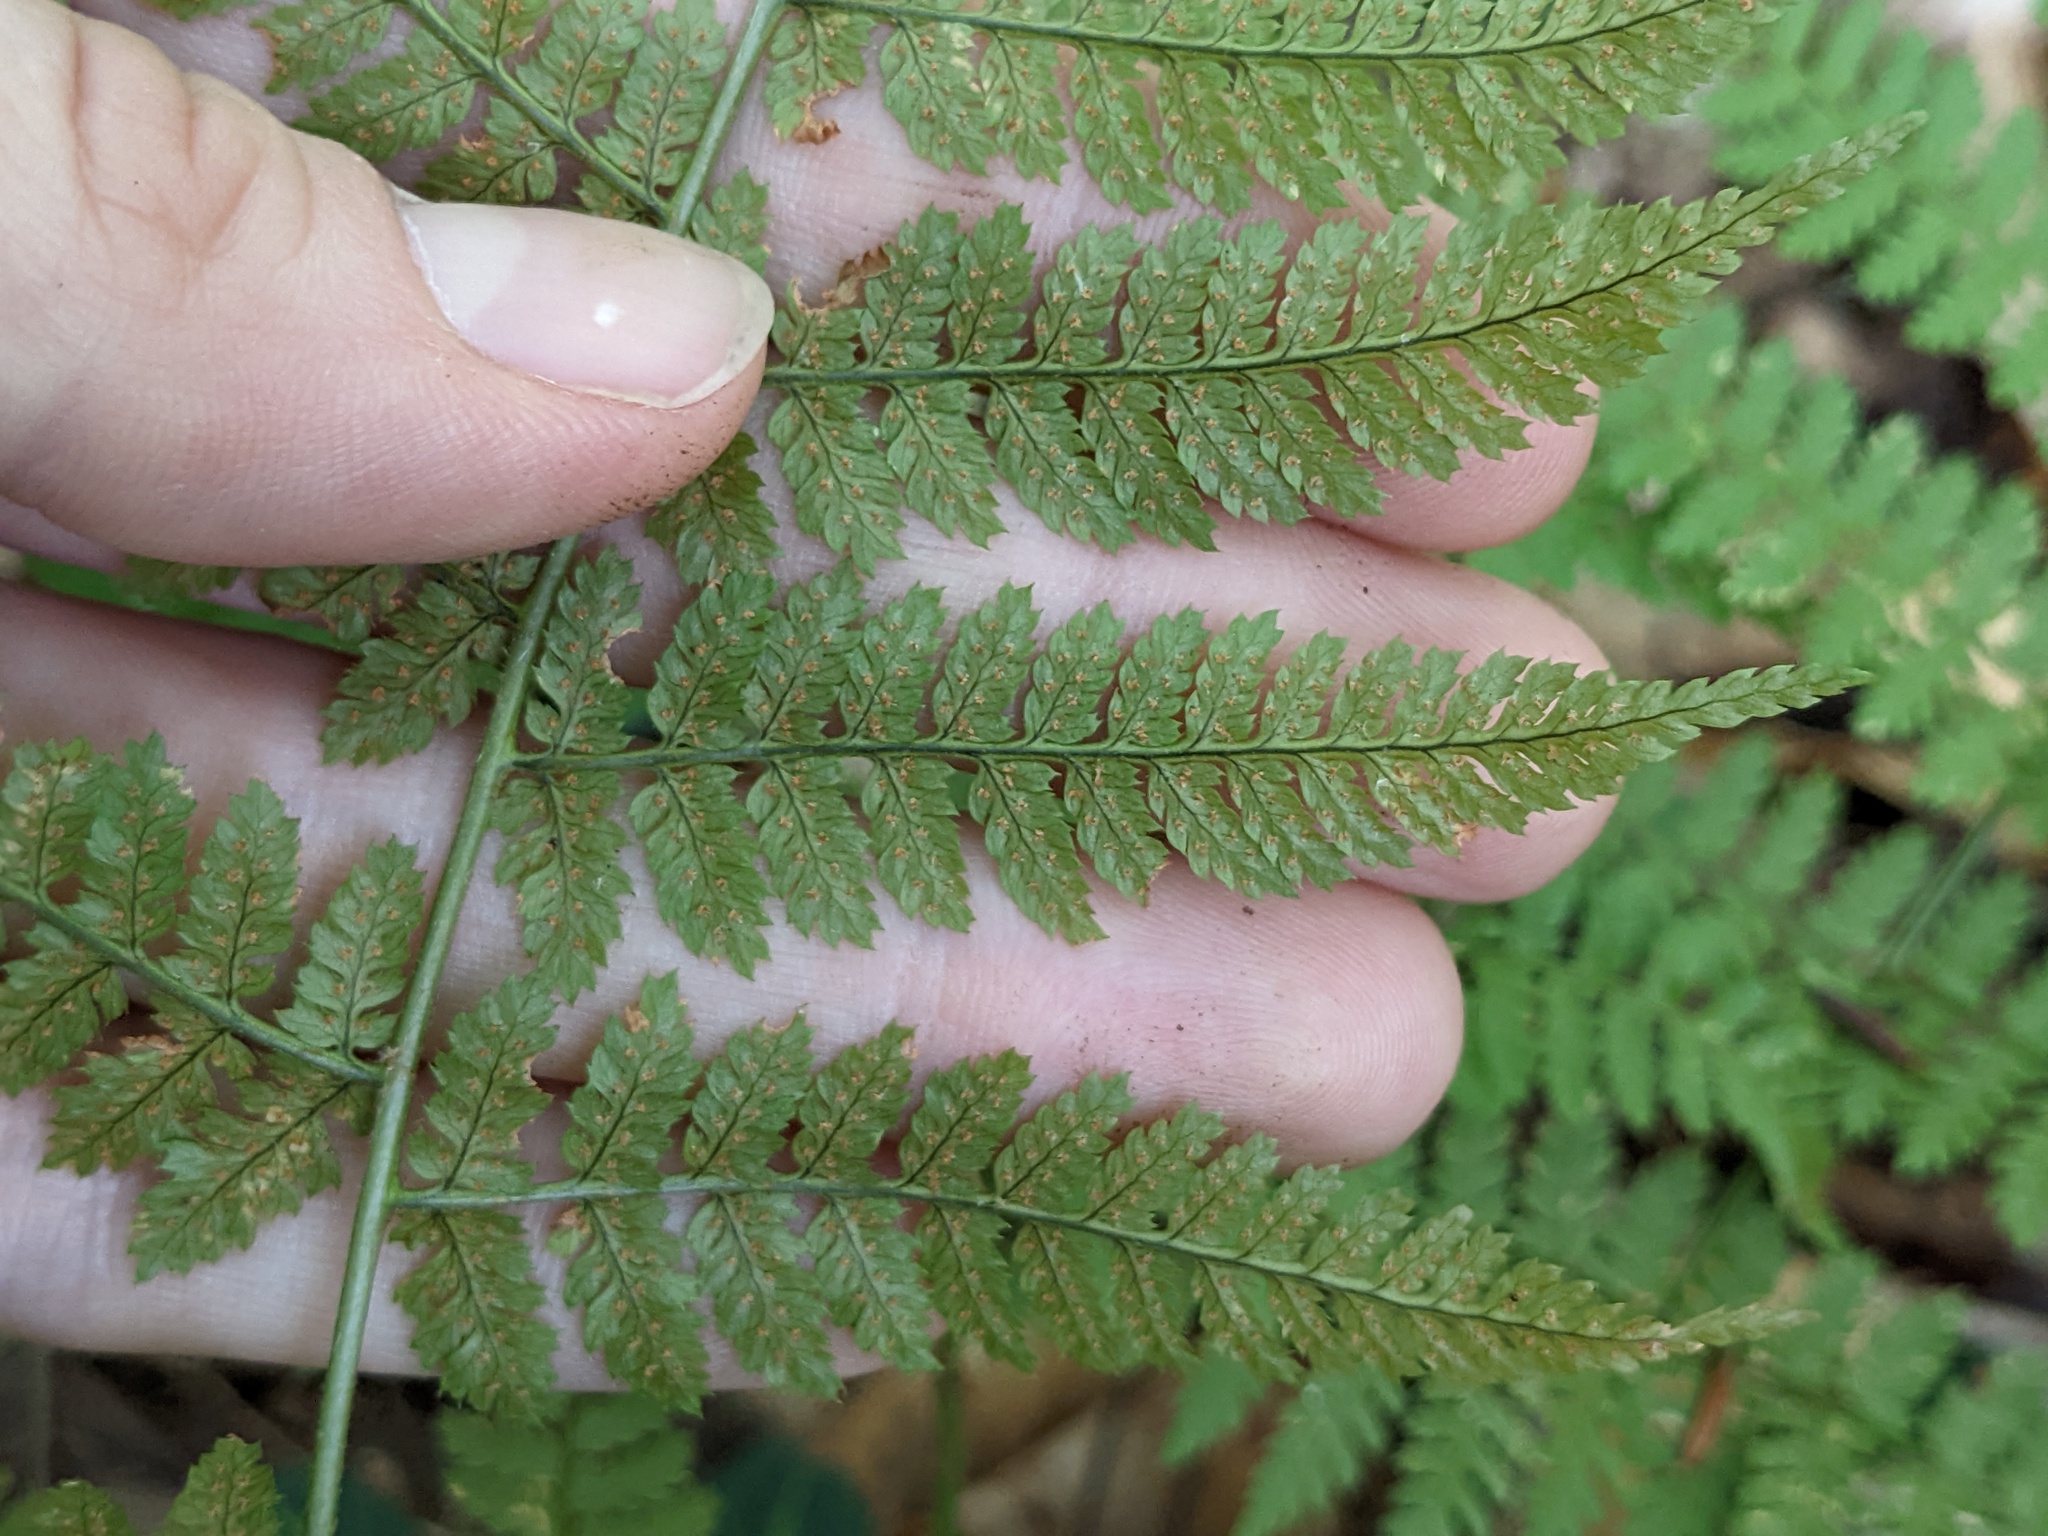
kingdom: Plantae
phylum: Tracheophyta
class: Polypodiopsida
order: Polypodiales
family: Dryopteridaceae
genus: Dryopteris
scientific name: Dryopteris intermedia
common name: Evergreen wood fern
